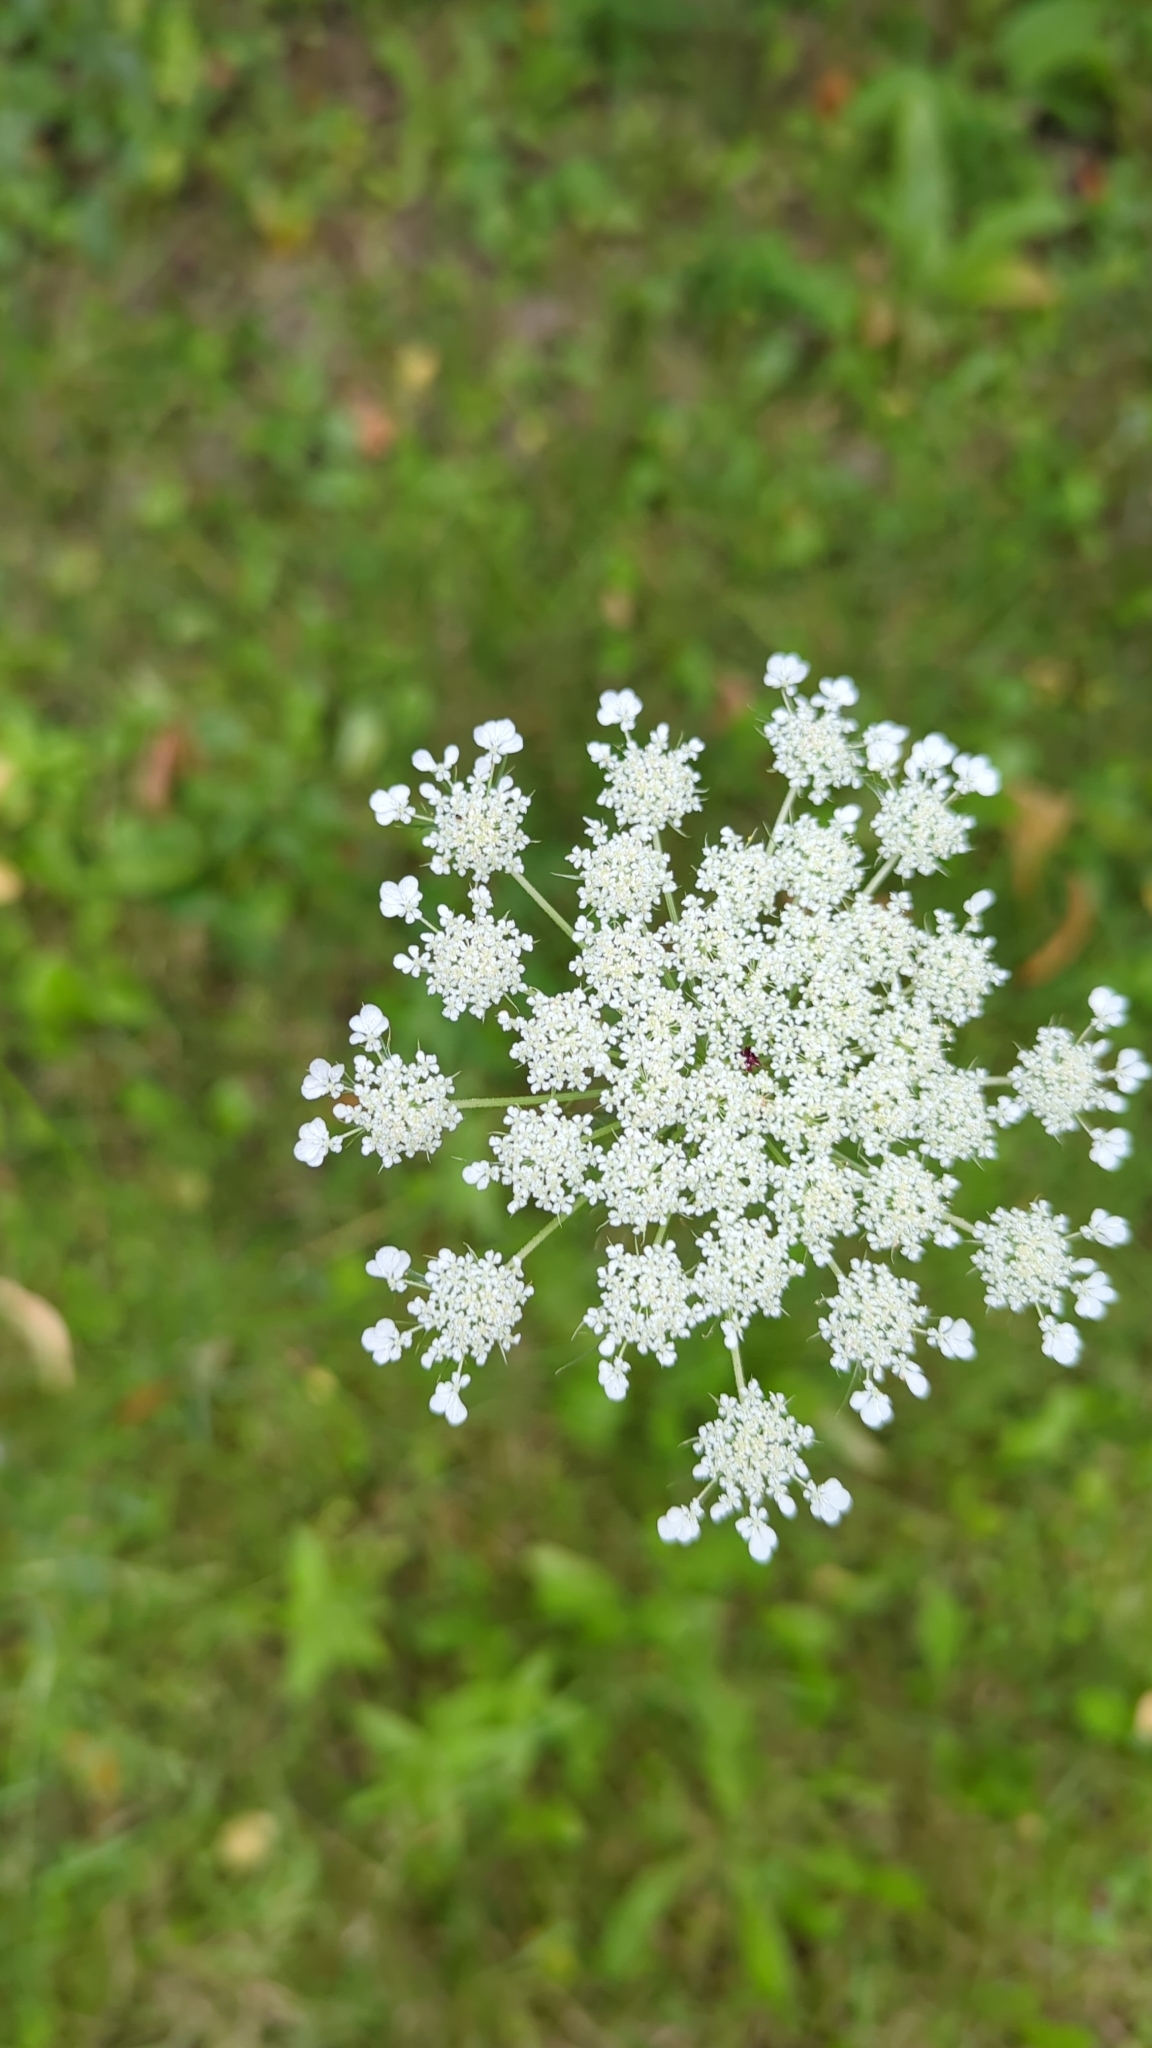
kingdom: Plantae
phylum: Tracheophyta
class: Magnoliopsida
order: Apiales
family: Apiaceae
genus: Daucus
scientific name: Daucus carota
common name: Wild carrot
